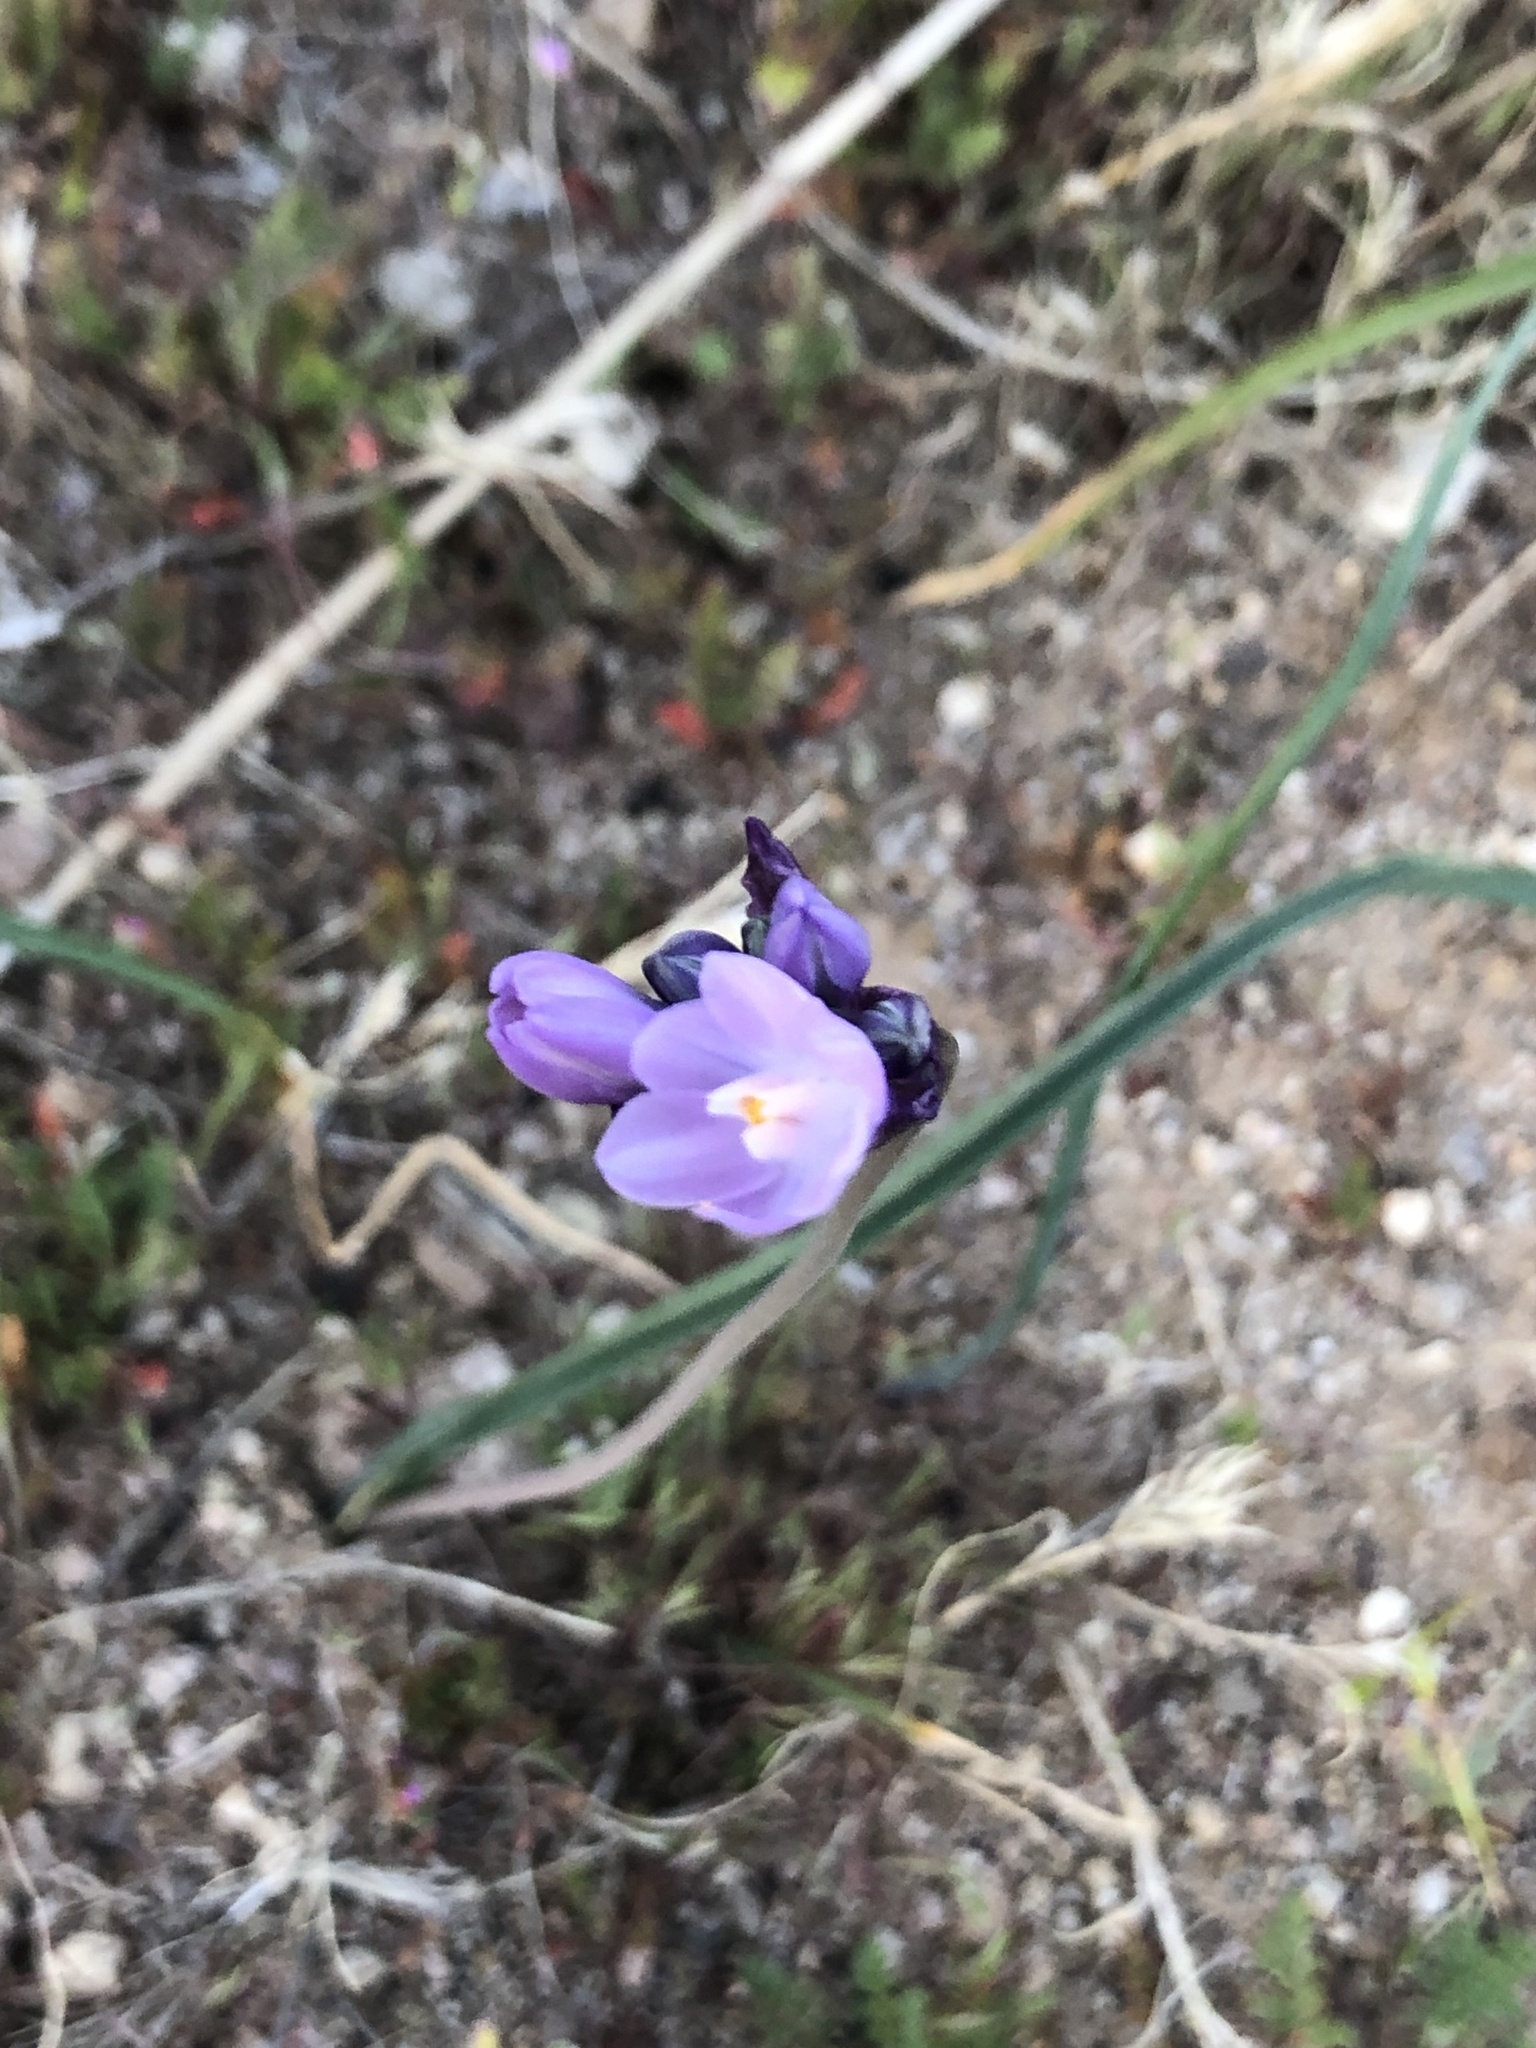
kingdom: Plantae
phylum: Tracheophyta
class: Liliopsida
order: Asparagales
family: Asparagaceae
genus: Dipterostemon
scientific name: Dipterostemon capitatus
